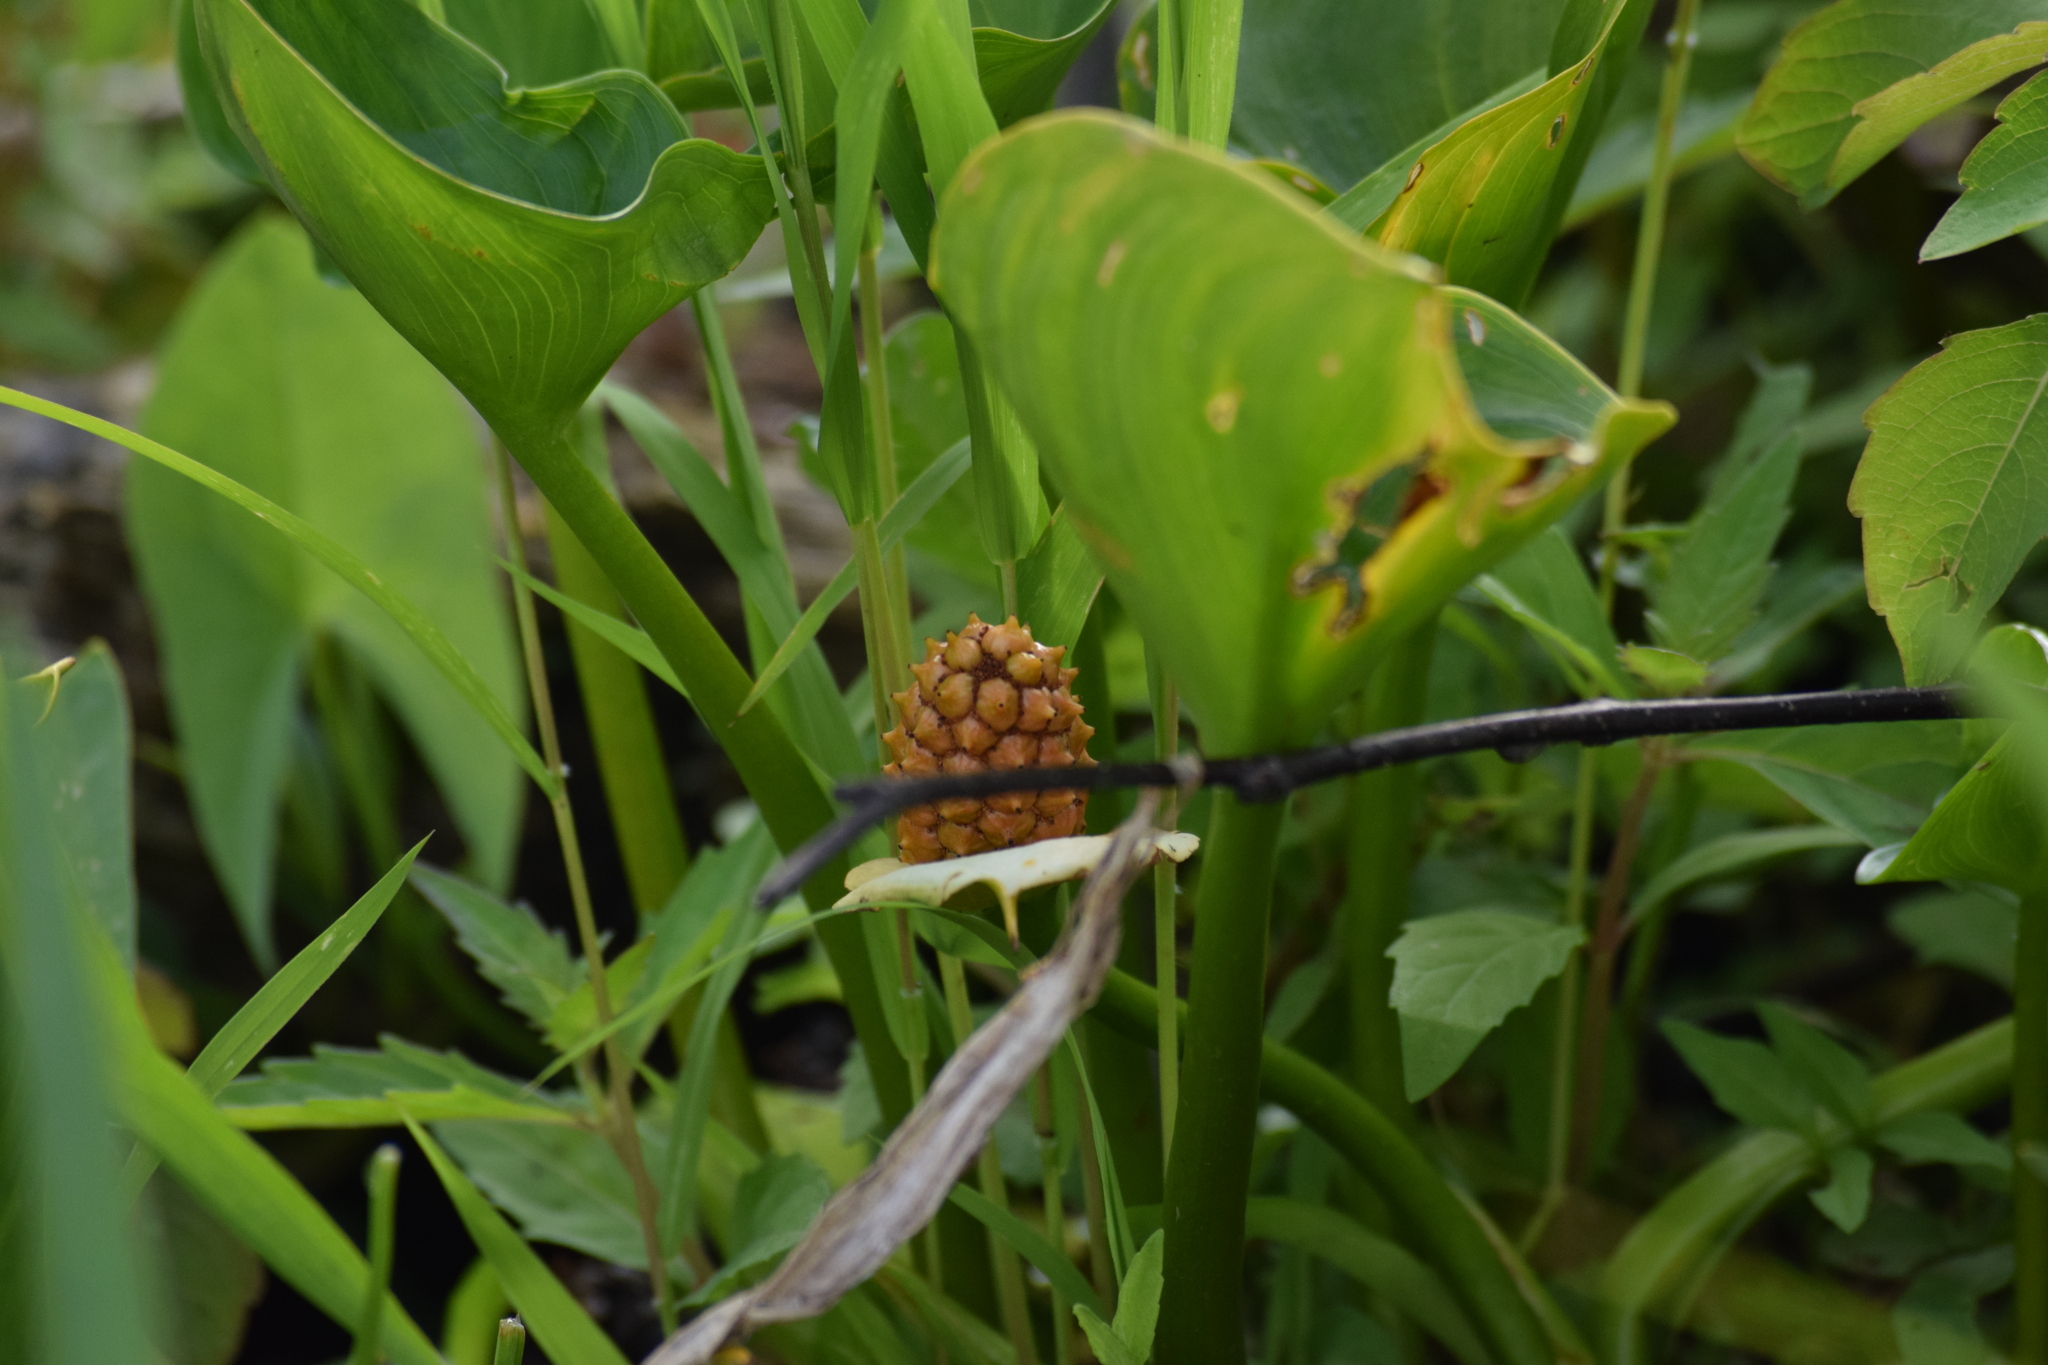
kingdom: Plantae
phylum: Tracheophyta
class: Liliopsida
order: Alismatales
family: Araceae
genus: Calla
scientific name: Calla palustris
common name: Bog arum
